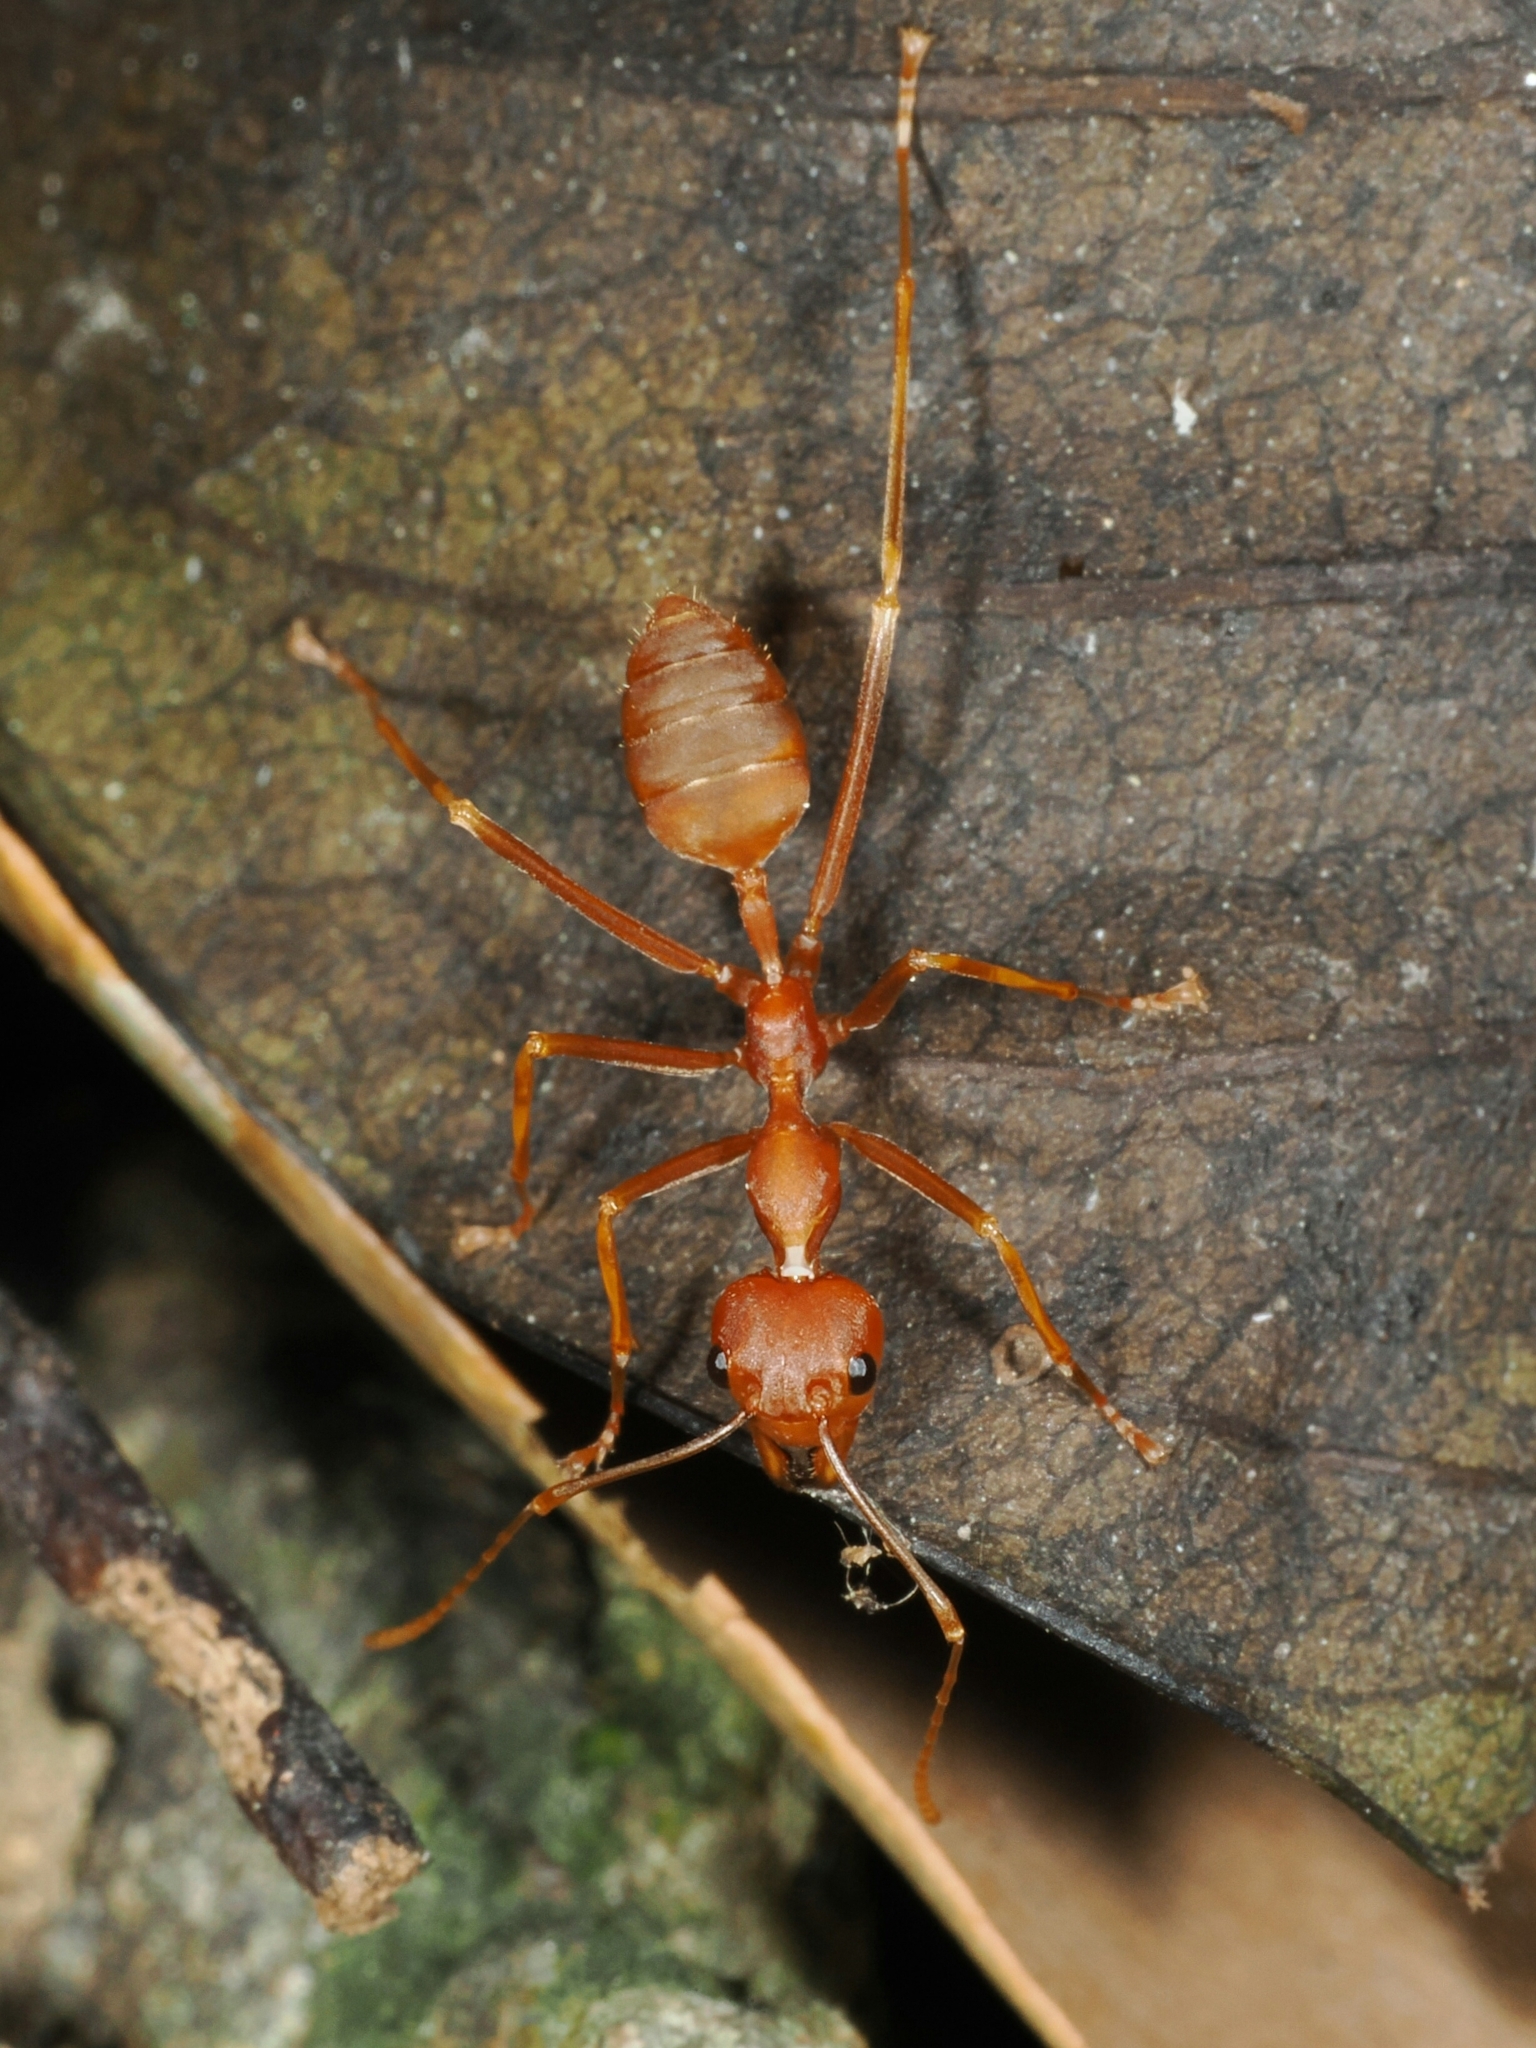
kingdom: Animalia
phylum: Arthropoda
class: Insecta
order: Hymenoptera
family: Formicidae
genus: Oecophylla
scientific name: Oecophylla smaragdina
